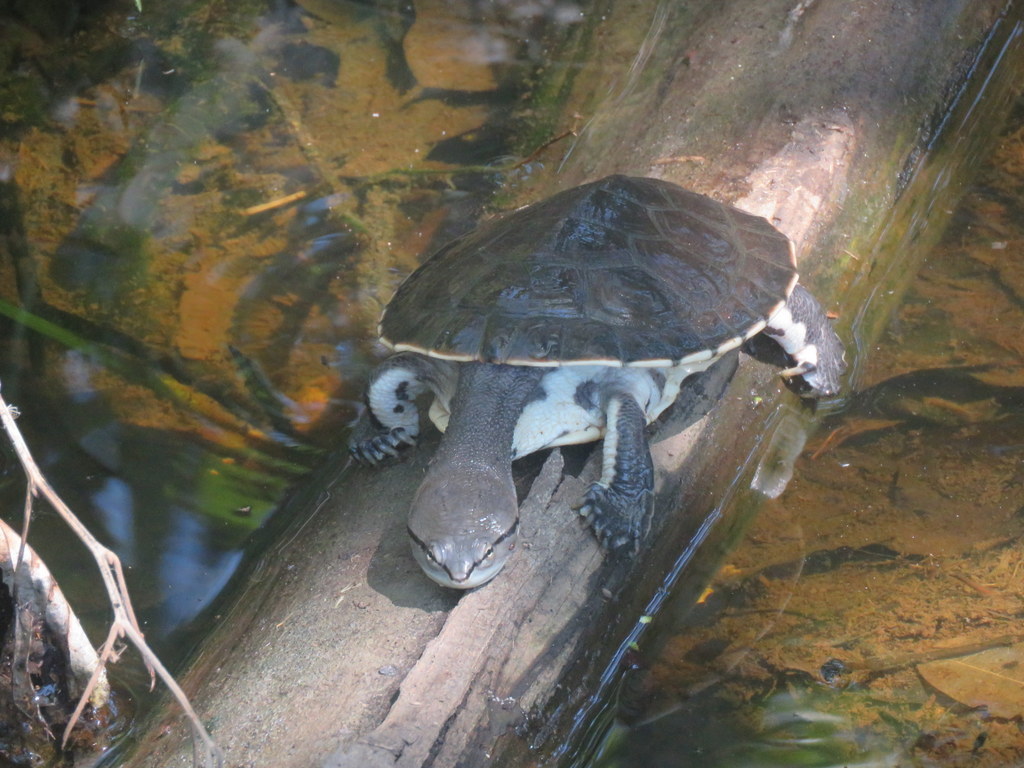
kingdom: Animalia
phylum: Chordata
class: Testudines
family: Chelidae
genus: Phrynops
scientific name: Phrynops hilarii
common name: Side-necked turtle of saint hillaire
